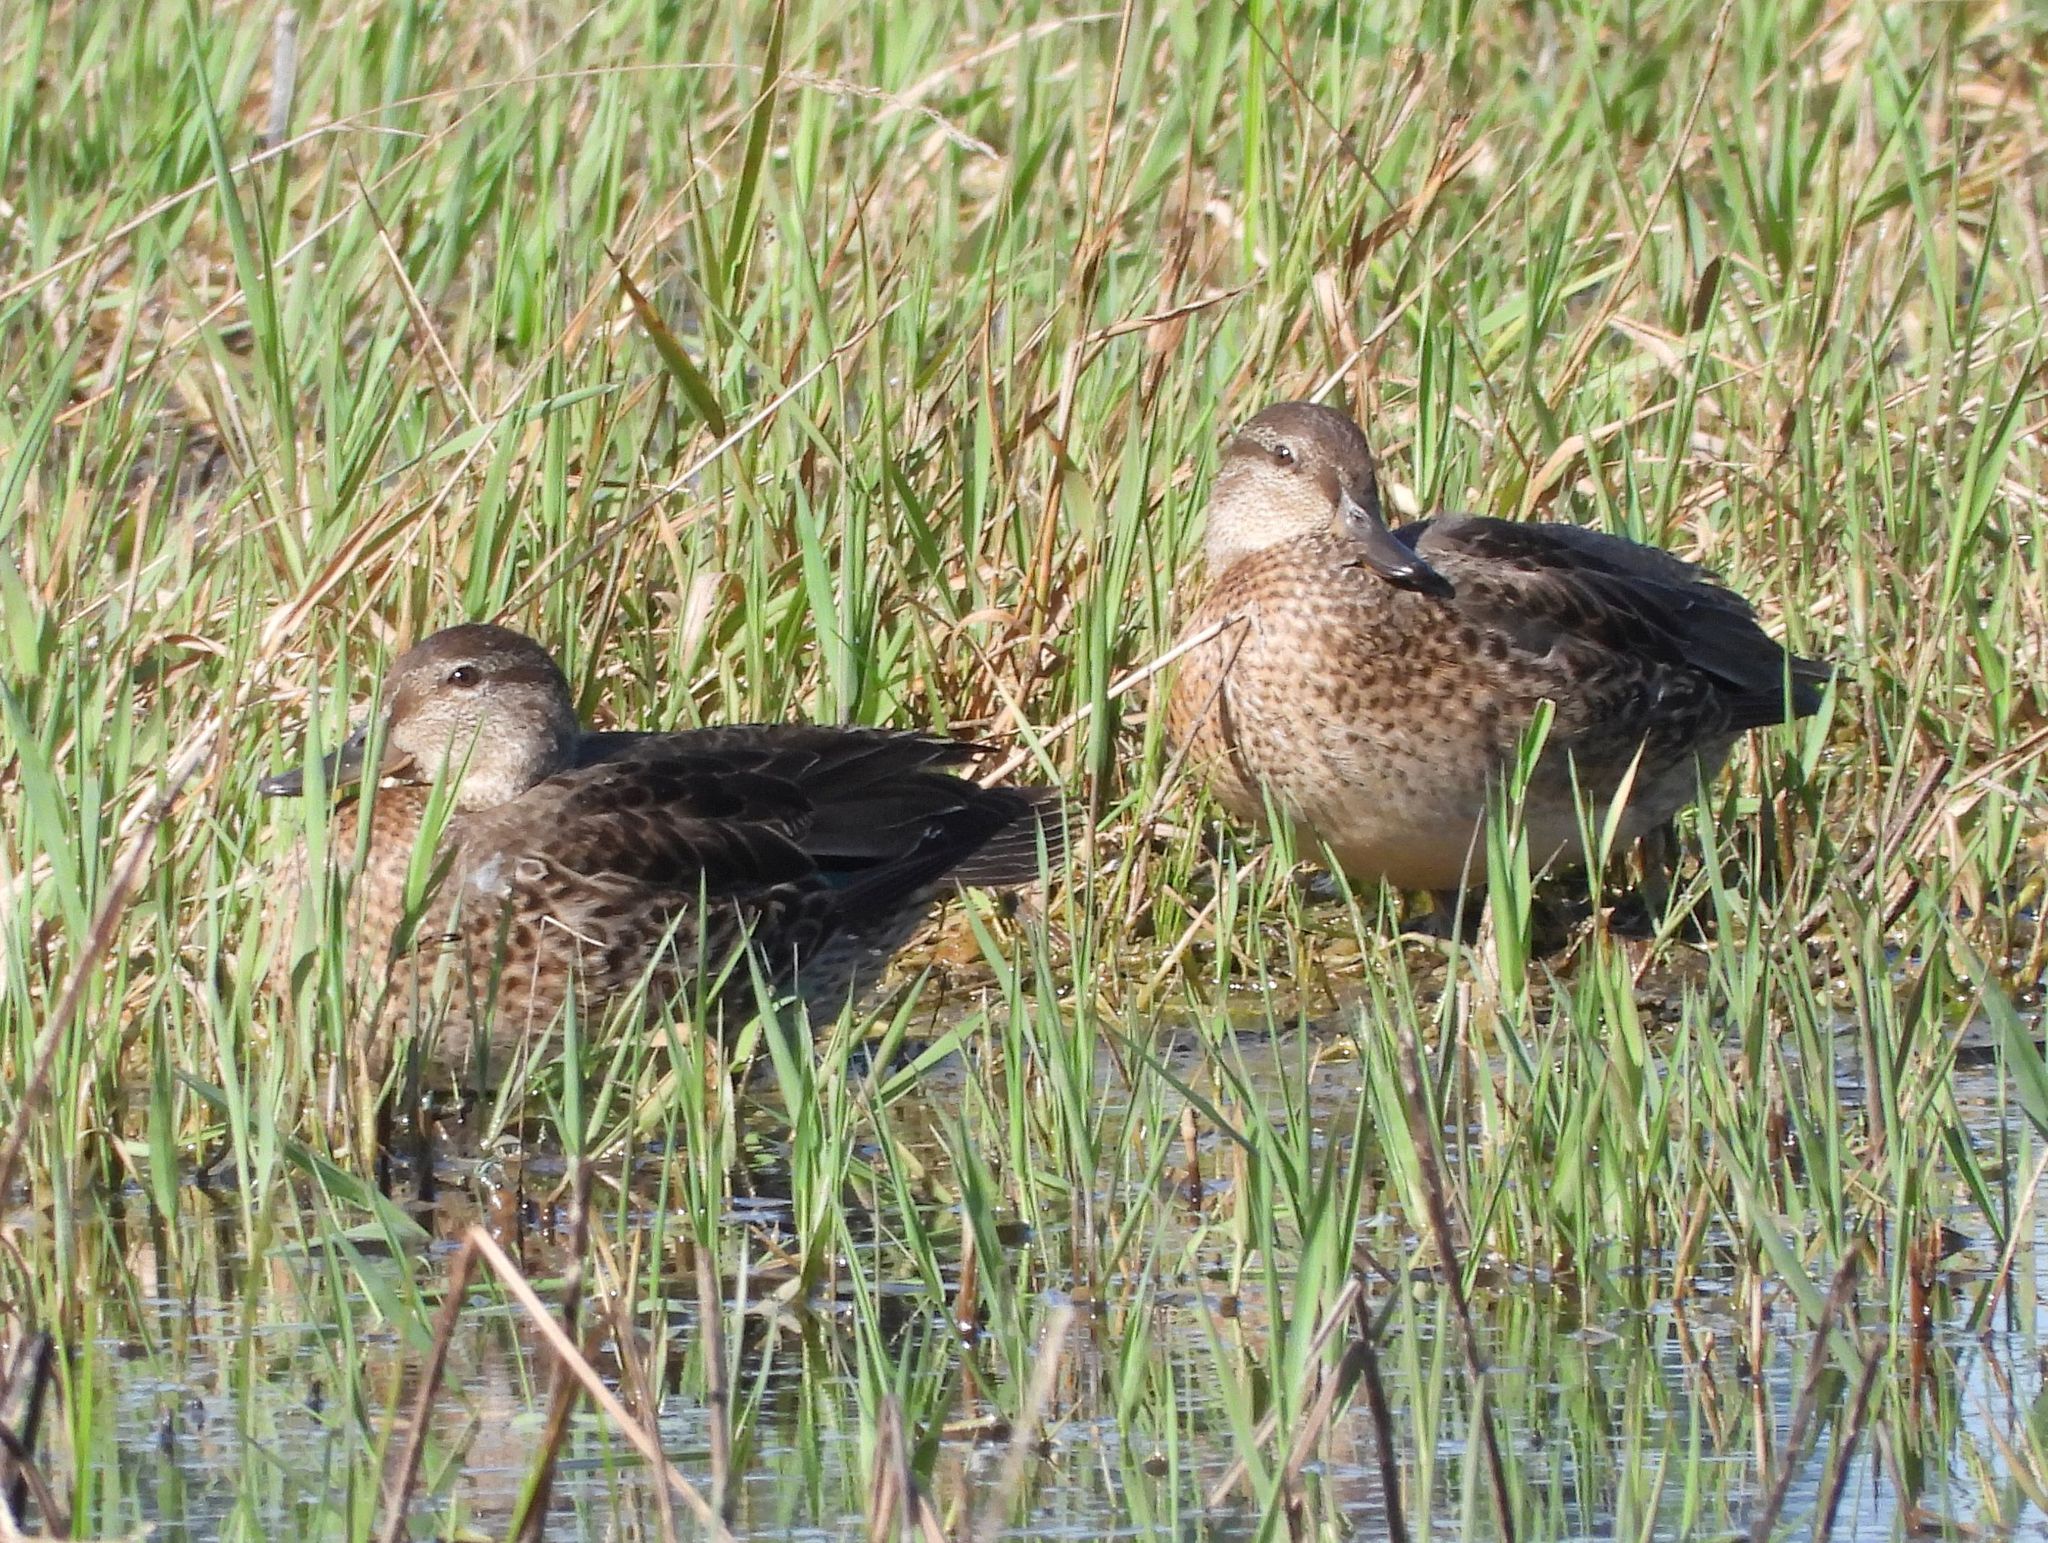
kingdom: Animalia
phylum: Chordata
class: Aves
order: Anseriformes
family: Anatidae
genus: Anas
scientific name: Anas platyrhynchos
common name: Mallard
